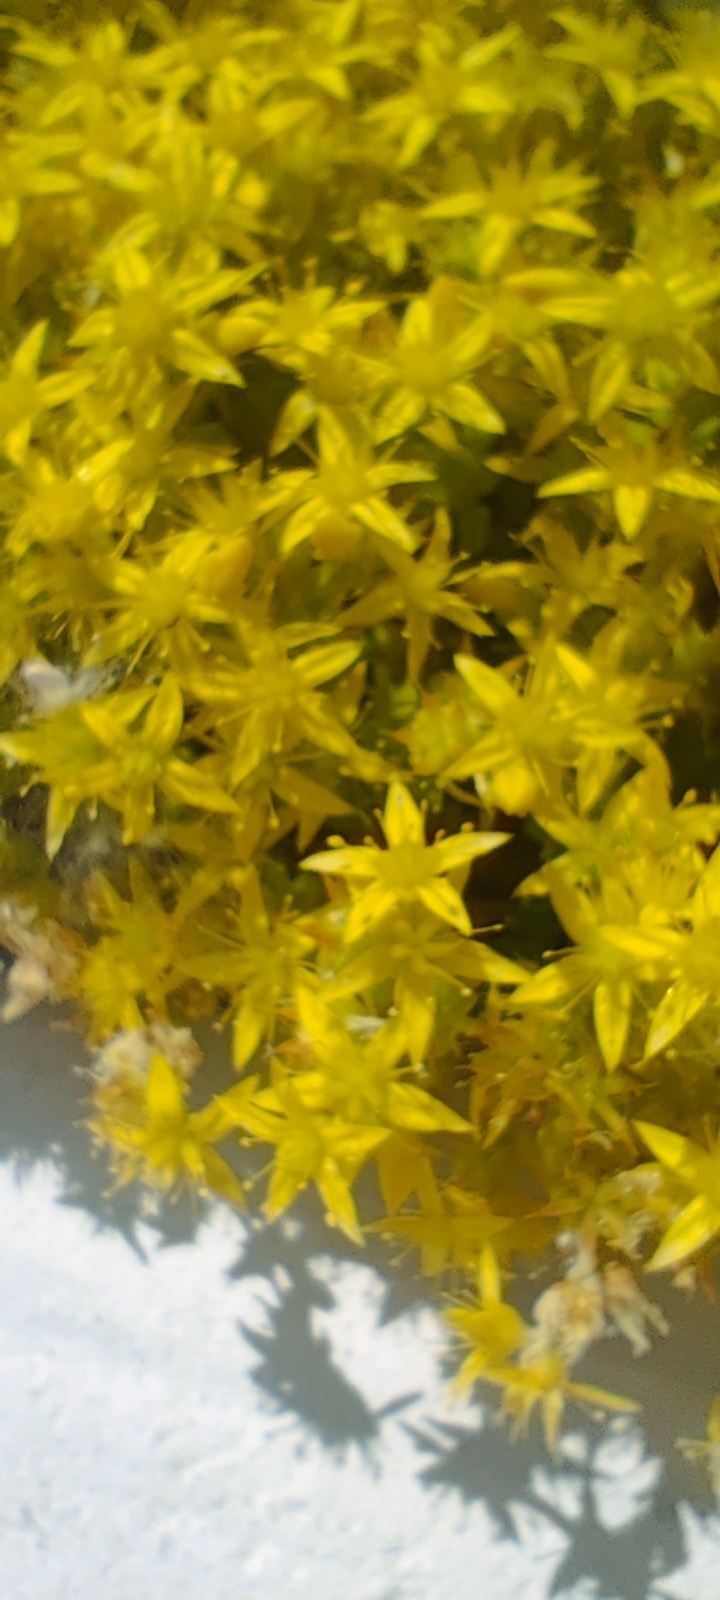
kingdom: Plantae
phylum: Tracheophyta
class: Magnoliopsida
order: Saxifragales
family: Crassulaceae
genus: Sedum
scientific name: Sedum acre
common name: Biting stonecrop
